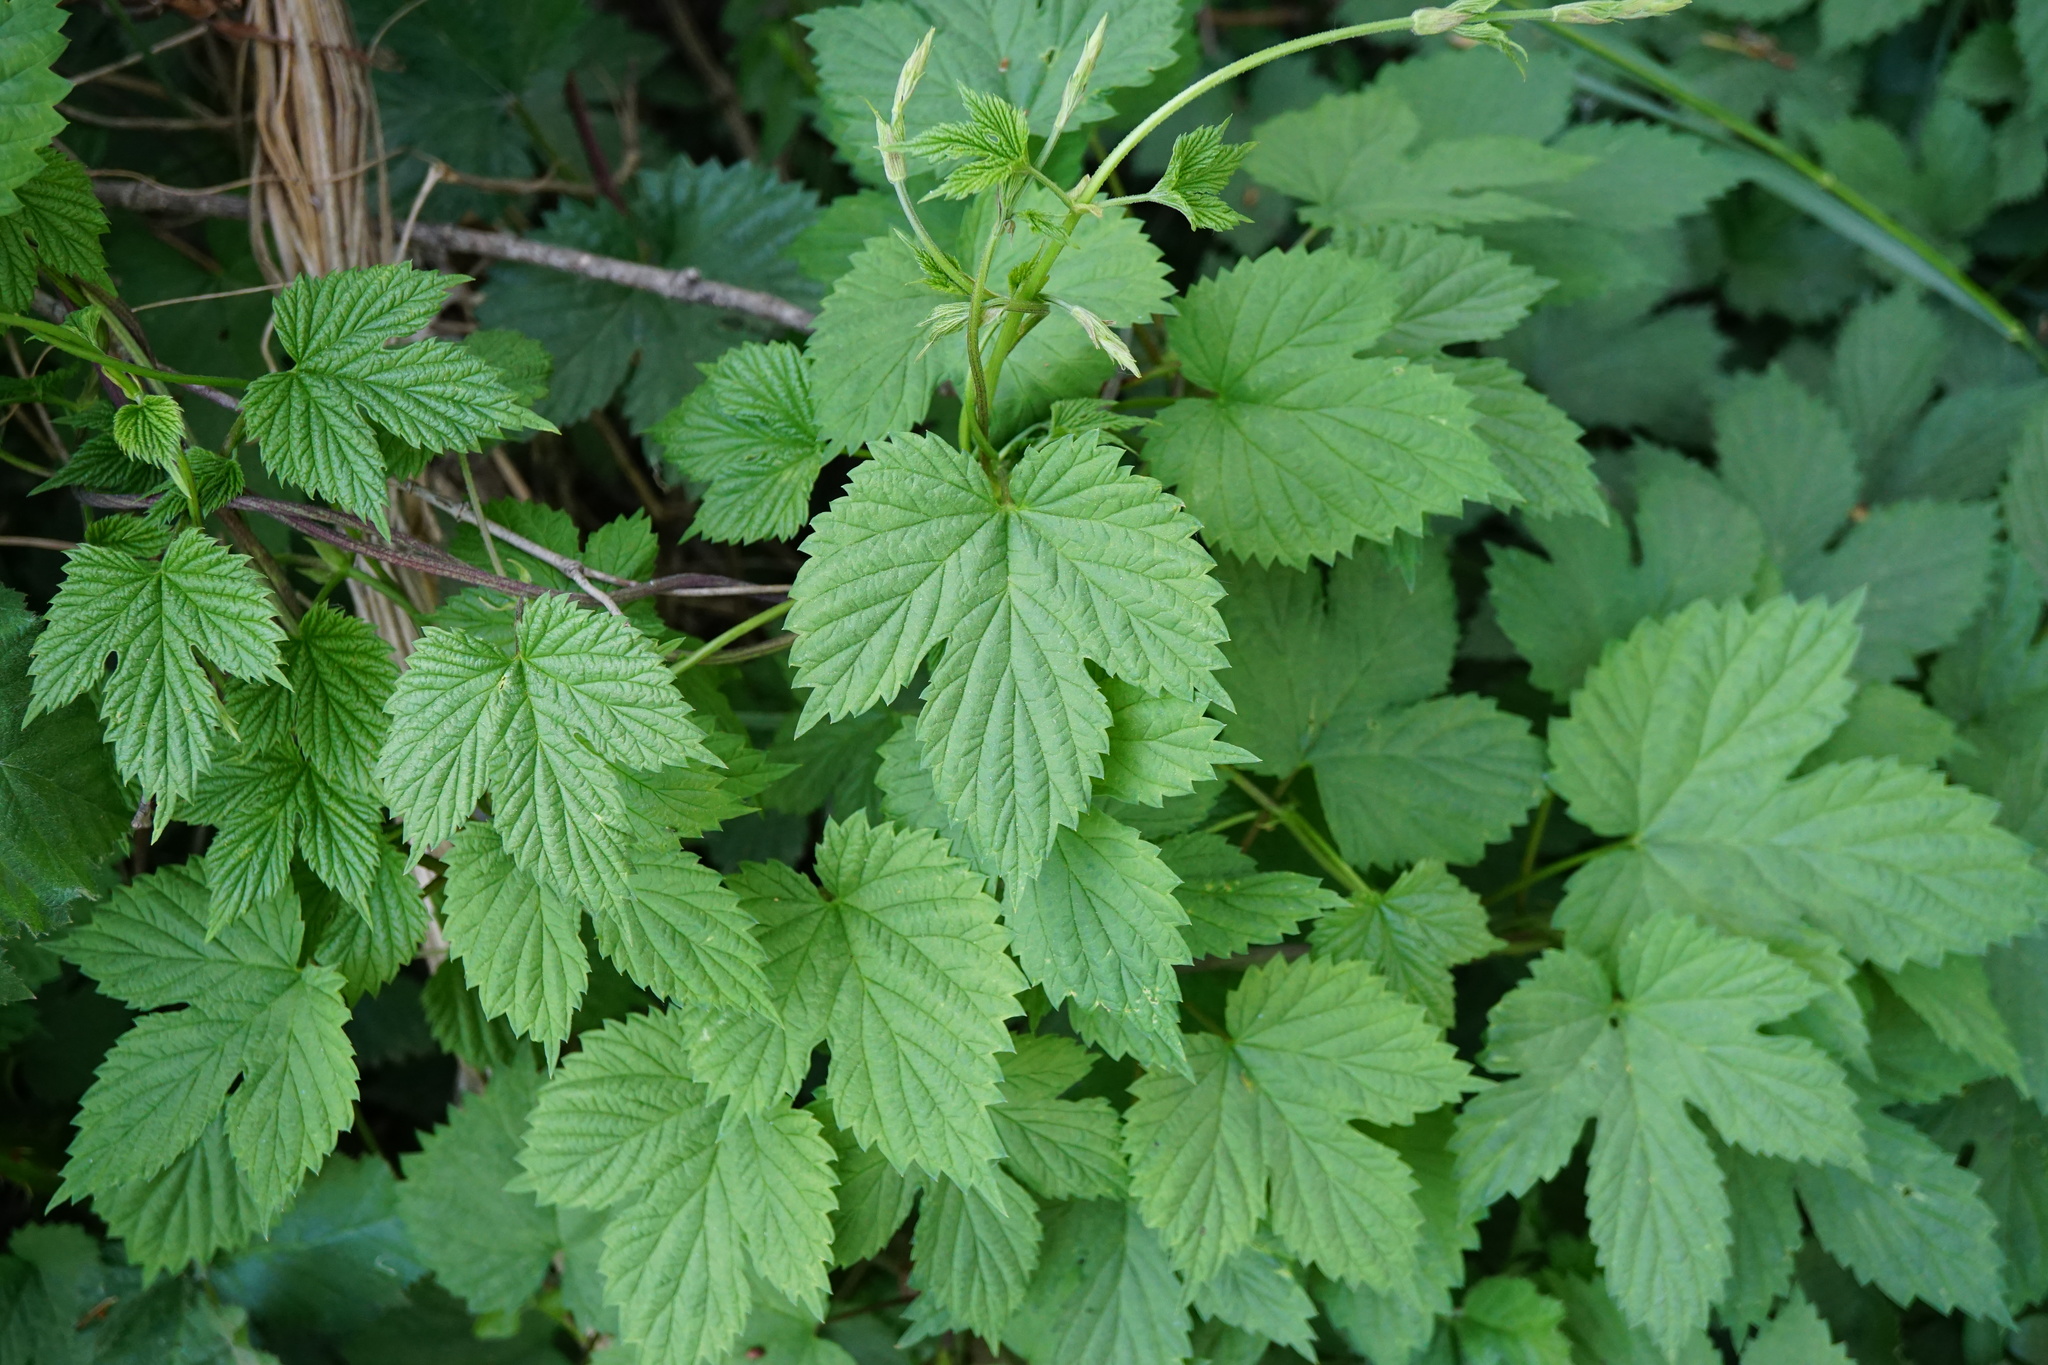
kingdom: Plantae
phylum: Tracheophyta
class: Magnoliopsida
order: Rosales
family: Cannabaceae
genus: Humulus
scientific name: Humulus lupulus
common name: Hop
